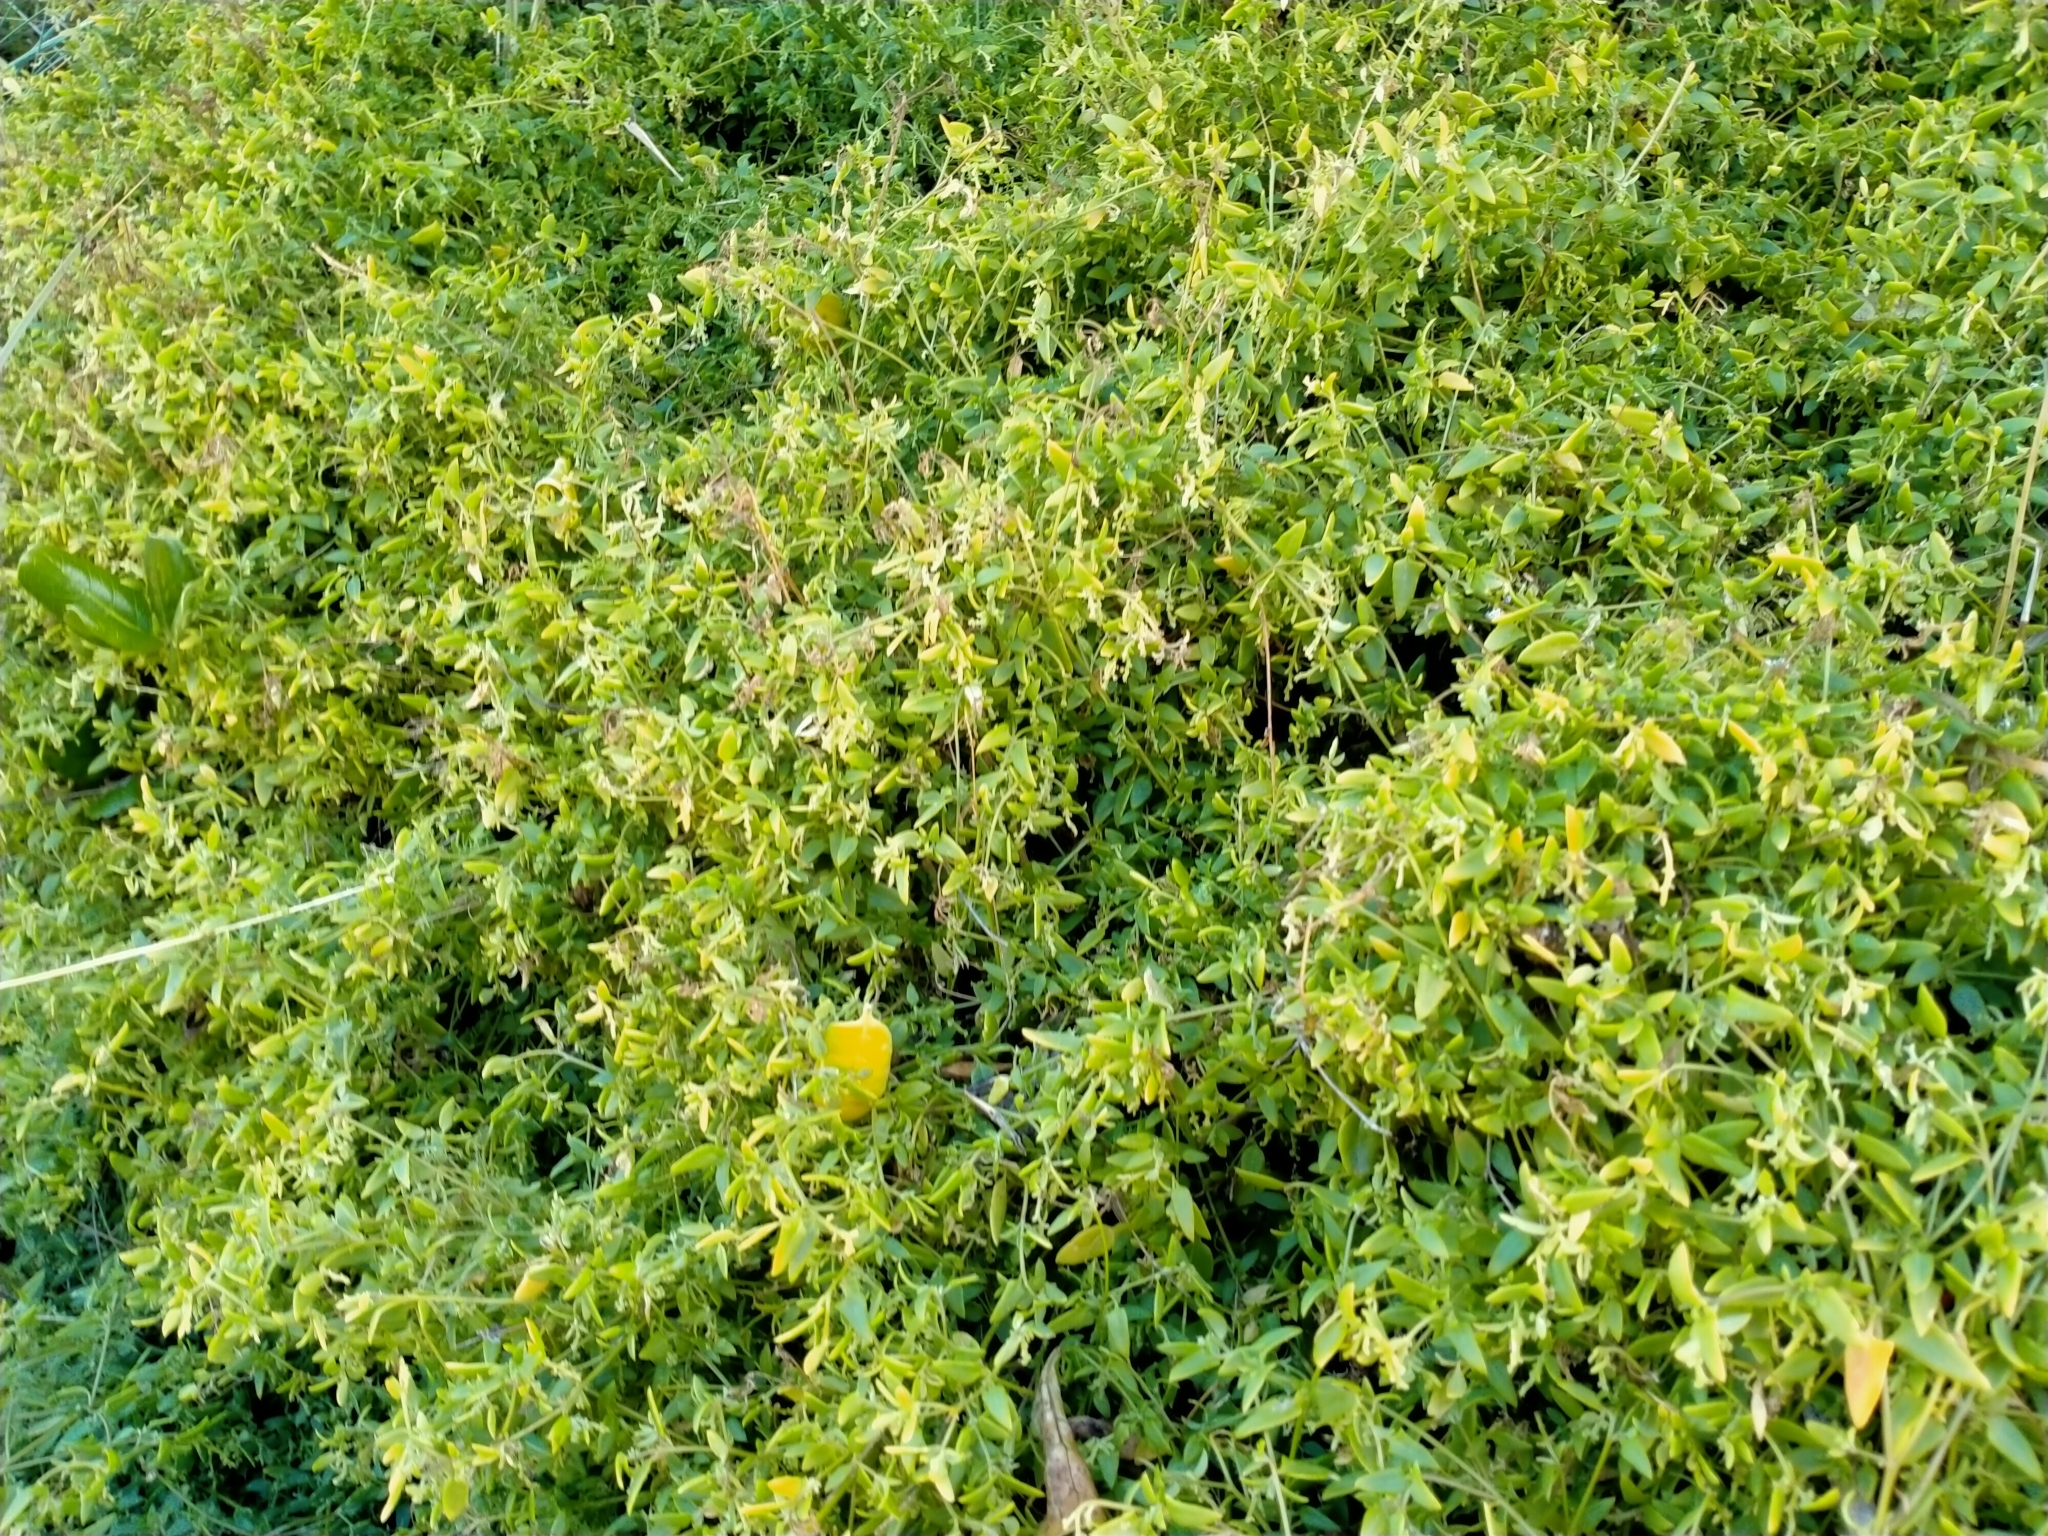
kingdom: Plantae
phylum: Tracheophyta
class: Magnoliopsida
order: Caryophyllales
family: Amaranthaceae
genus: Chenopodium
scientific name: Chenopodium nutans
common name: Climbing-saltbush
